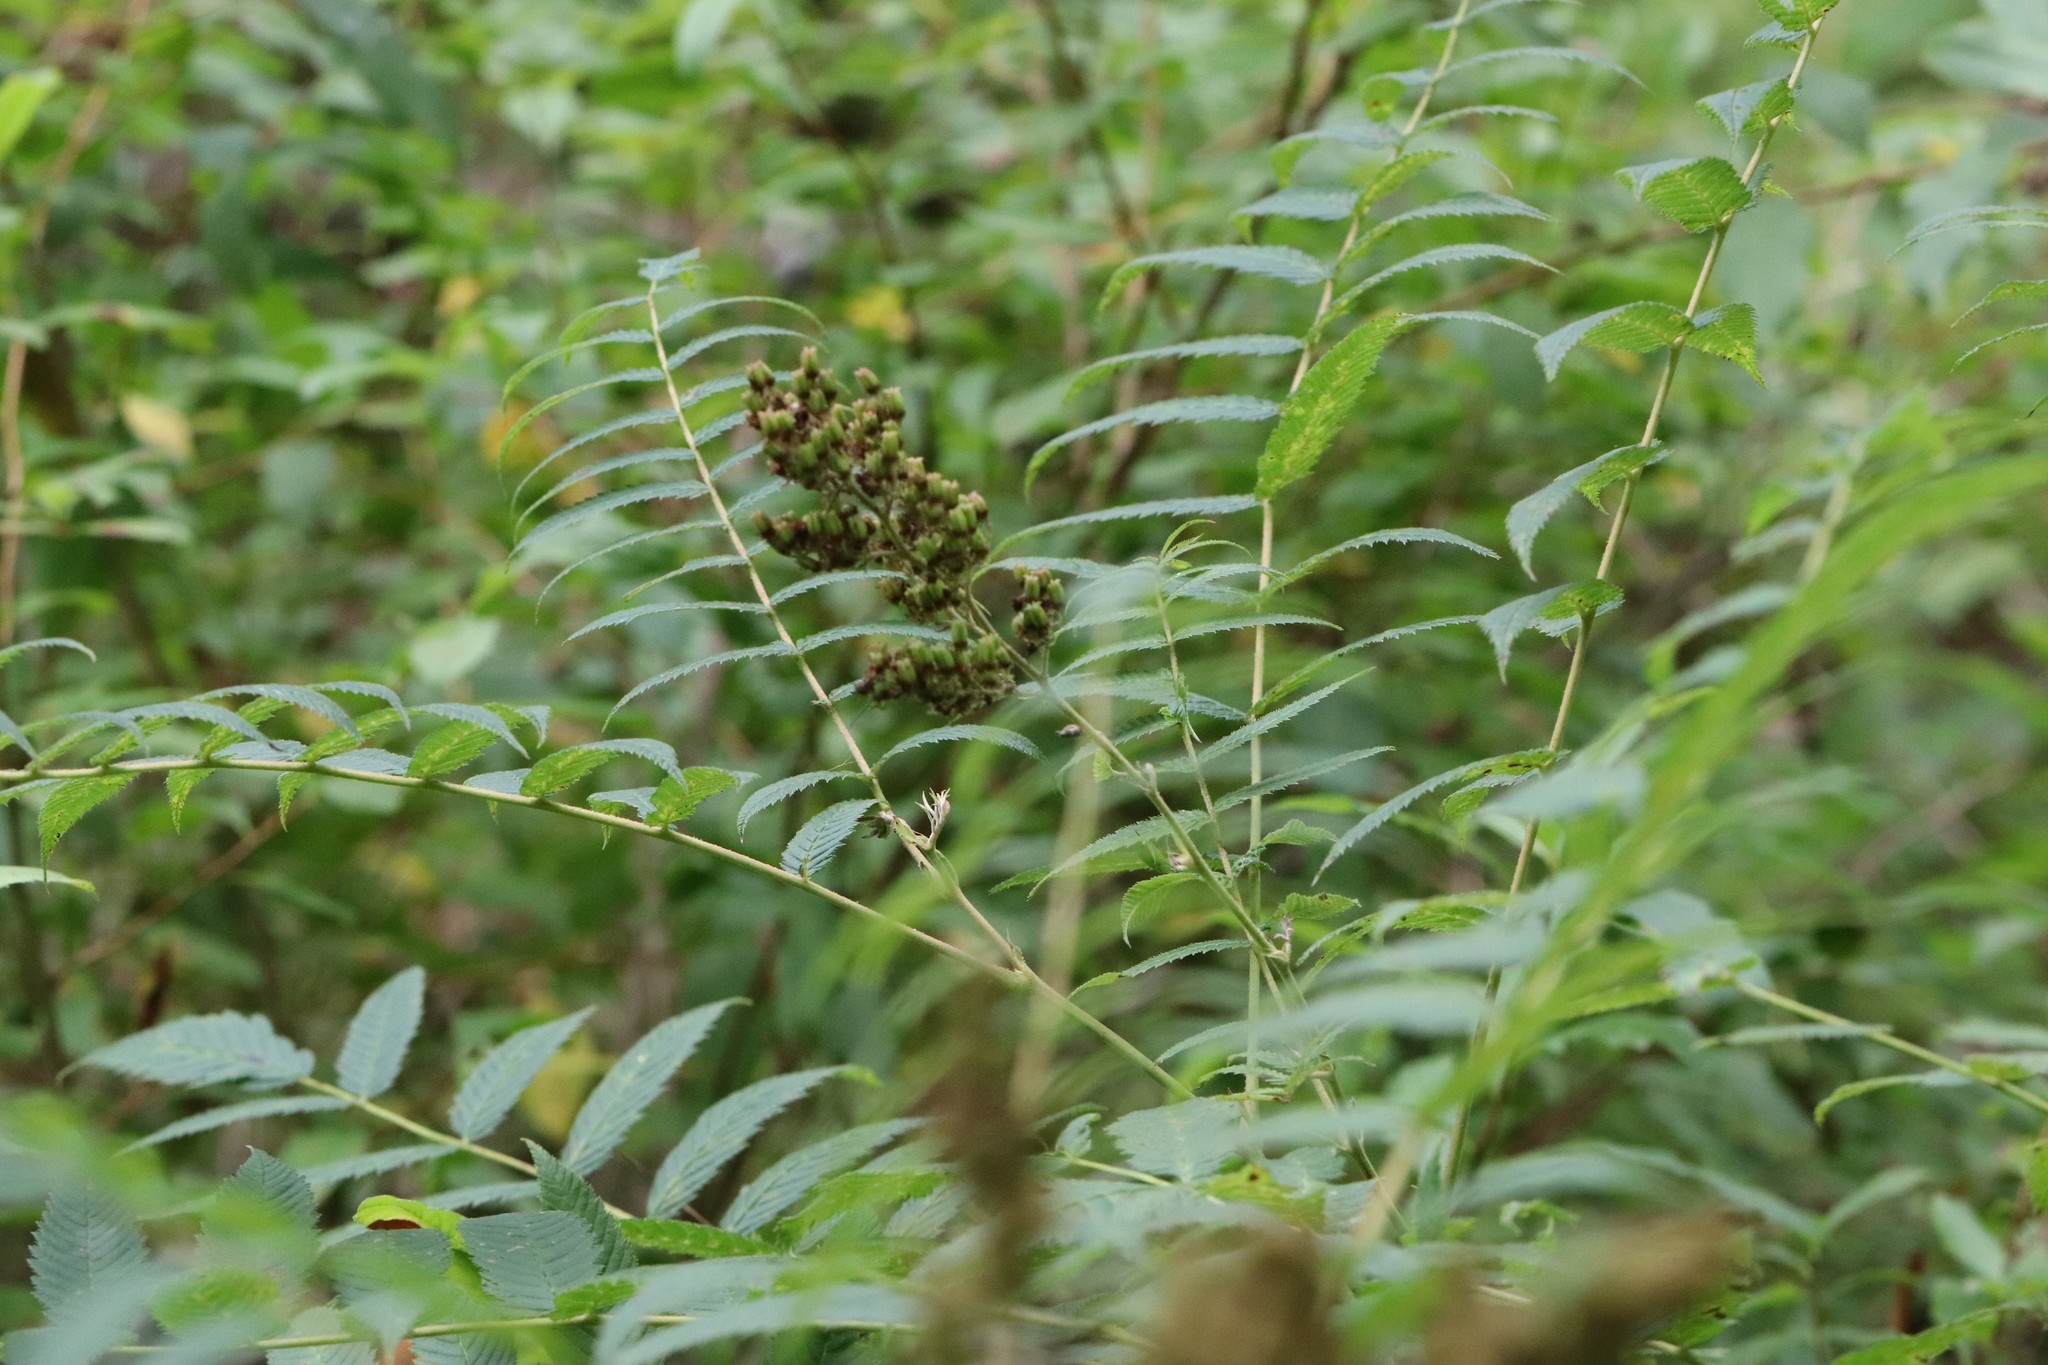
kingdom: Plantae
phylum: Tracheophyta
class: Magnoliopsida
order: Rosales
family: Rosaceae
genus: Sorbaria
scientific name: Sorbaria sorbifolia
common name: False spiraea
